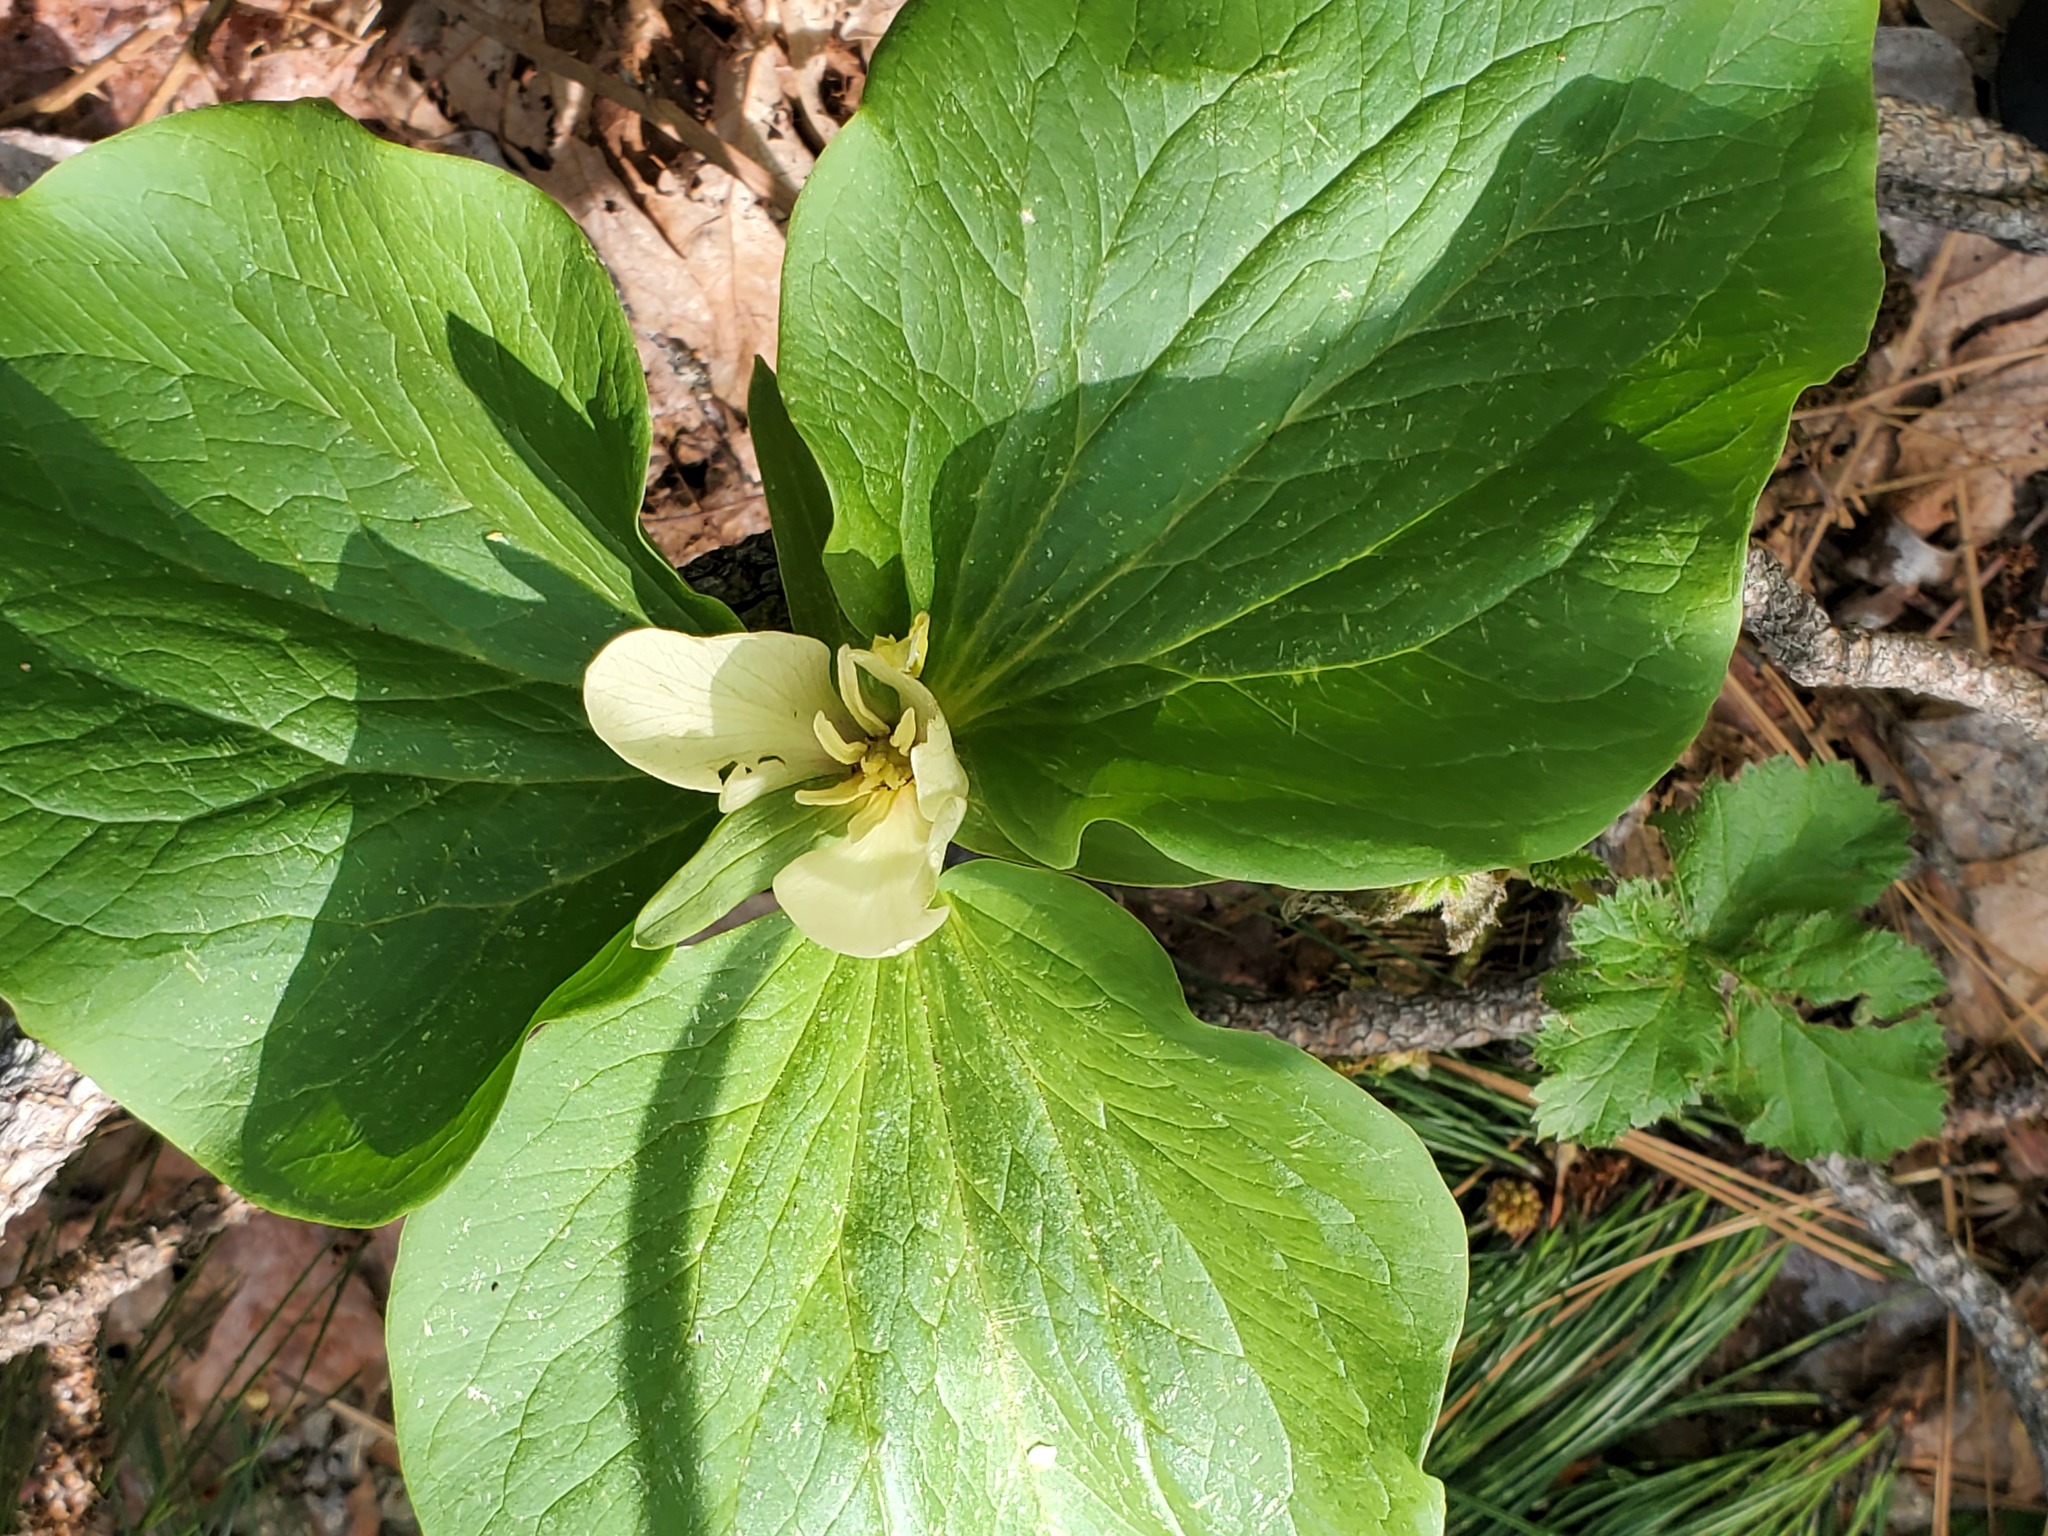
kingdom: Plantae
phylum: Tracheophyta
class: Liliopsida
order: Liliales
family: Melanthiaceae
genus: Trillium
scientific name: Trillium albidum
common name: Freeman's trillium
